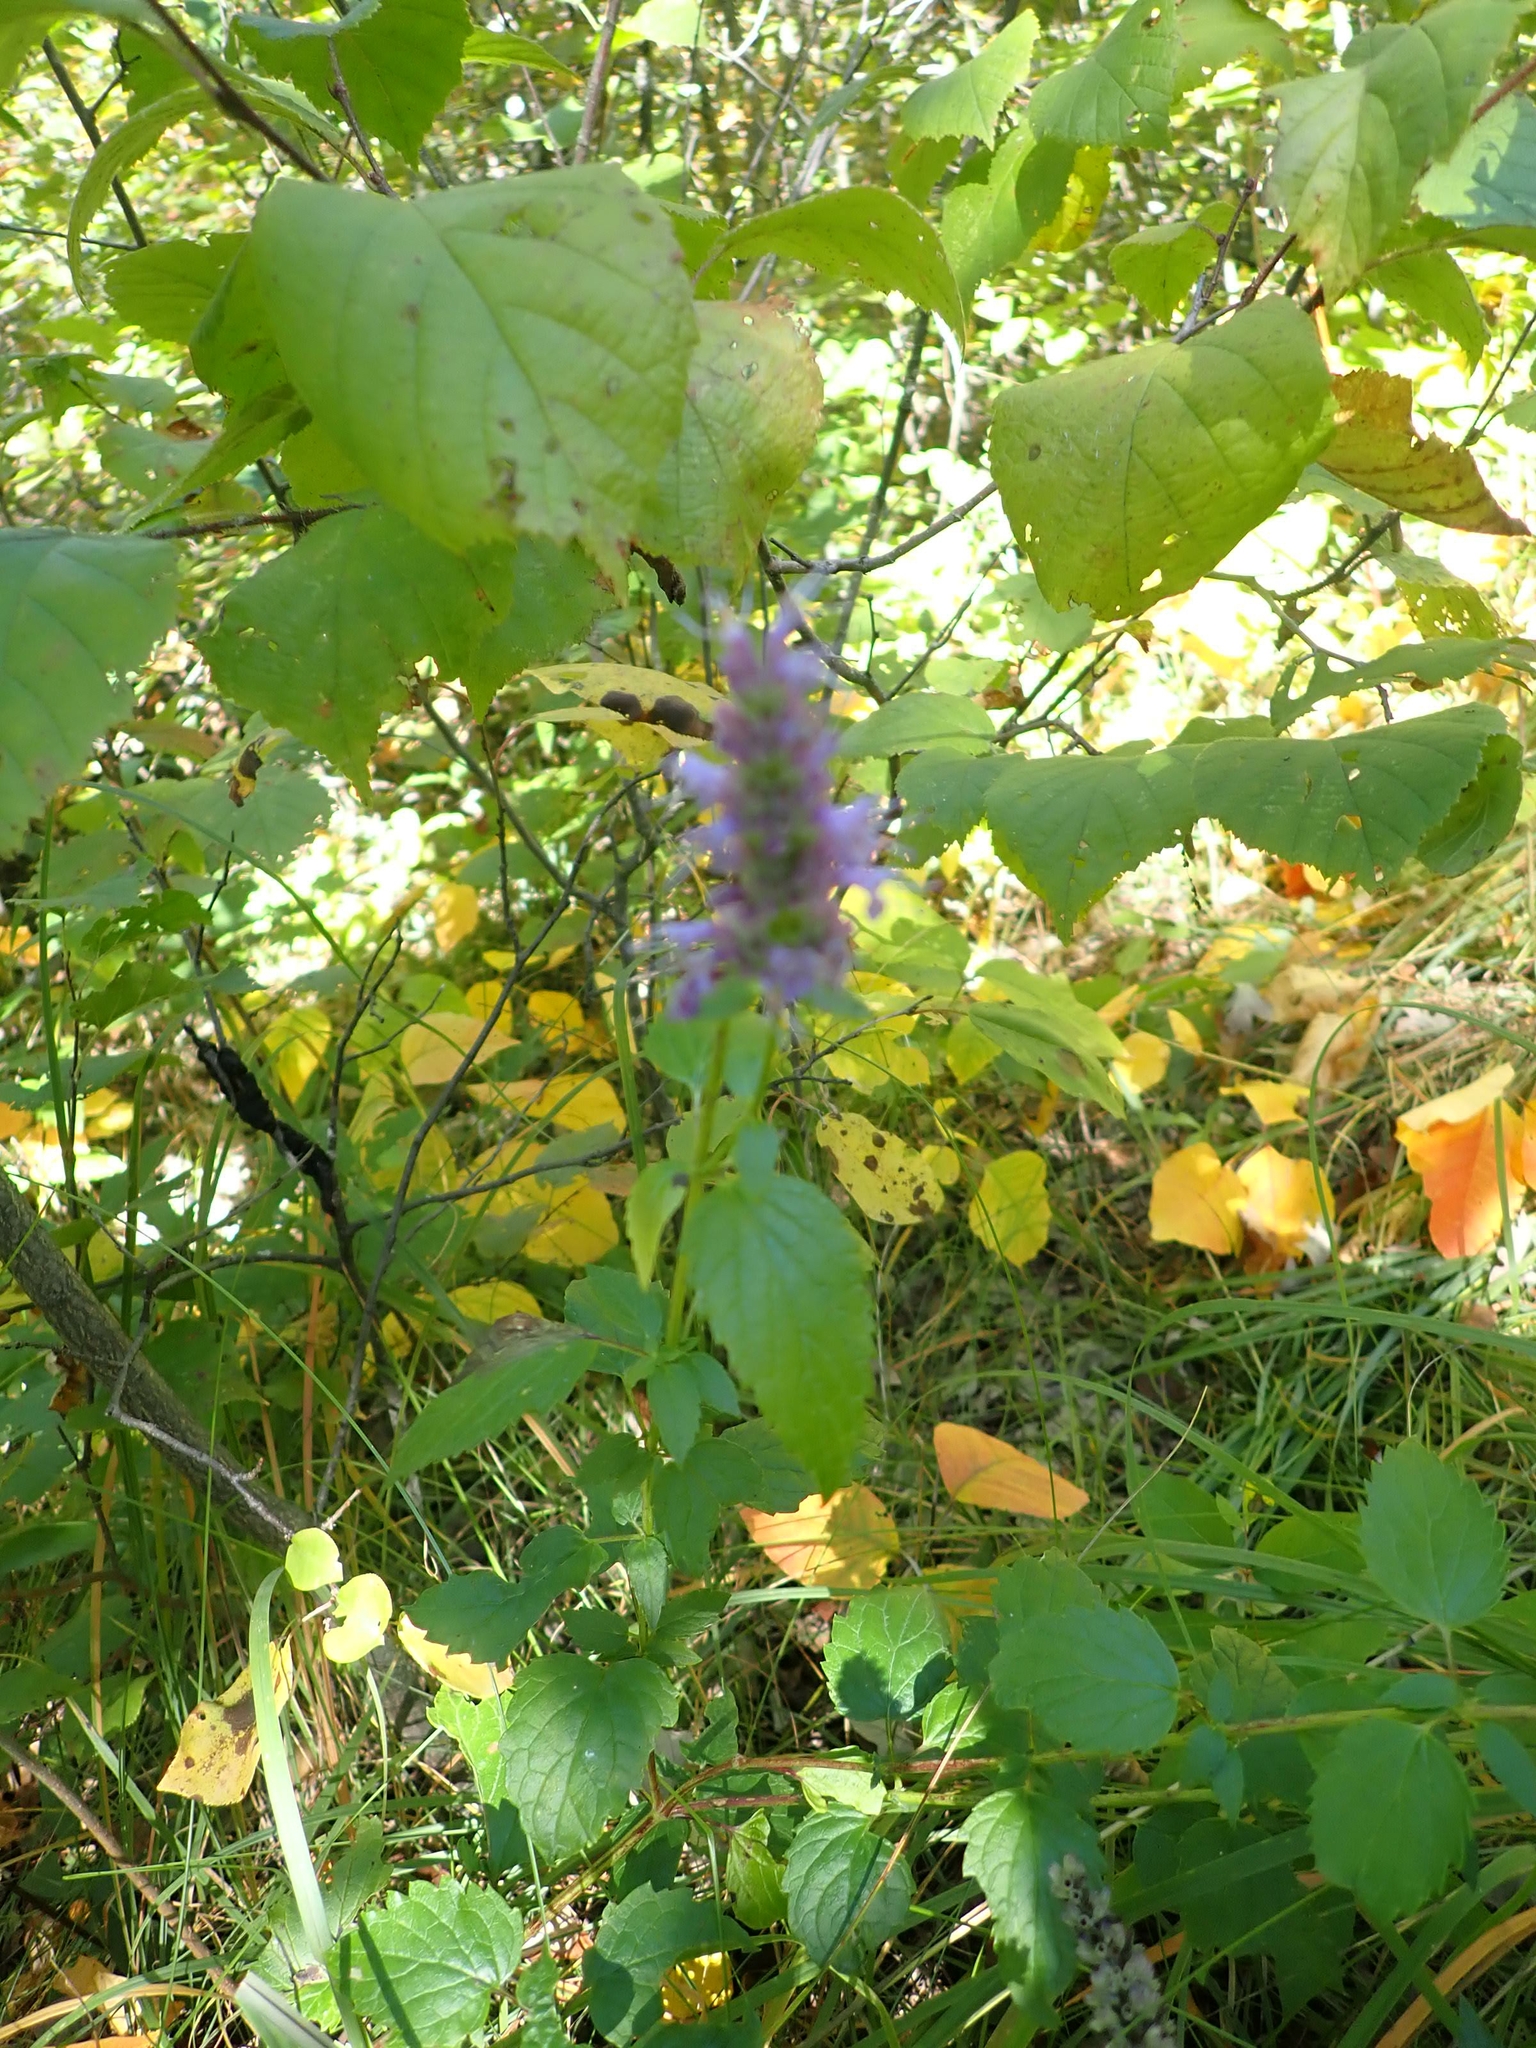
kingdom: Plantae
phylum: Tracheophyta
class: Magnoliopsida
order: Lamiales
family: Lamiaceae
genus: Agastache
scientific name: Agastache foeniculum
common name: Anise hyssop
